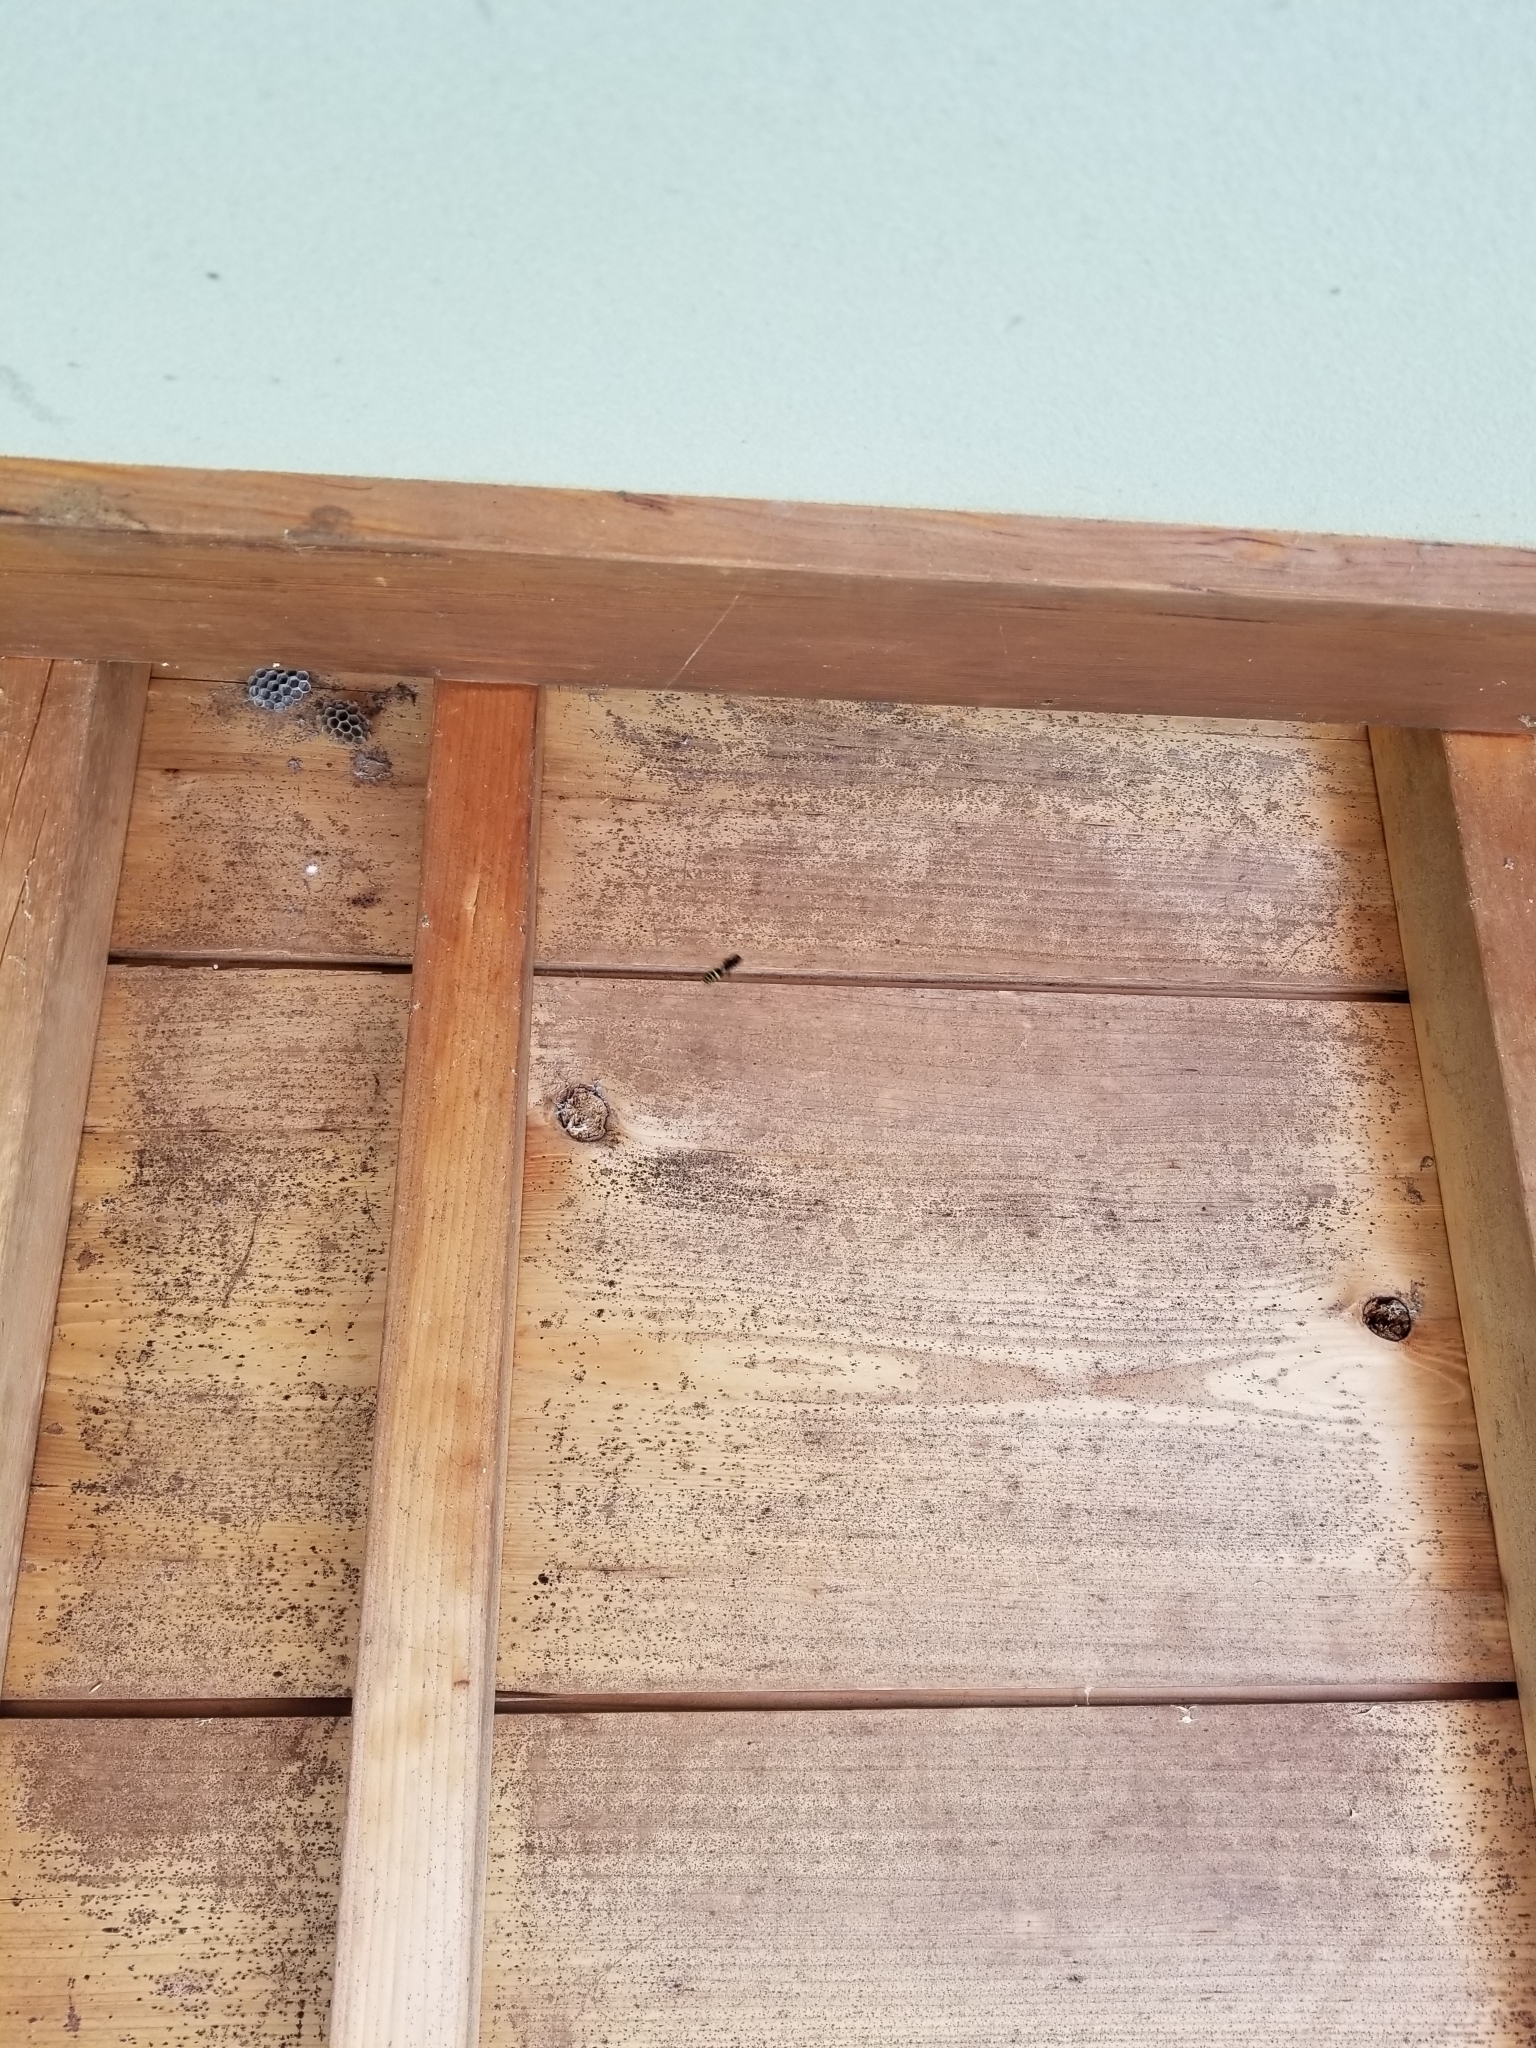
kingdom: Animalia
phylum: Arthropoda
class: Insecta
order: Hymenoptera
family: Vespidae
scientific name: Vespidae
